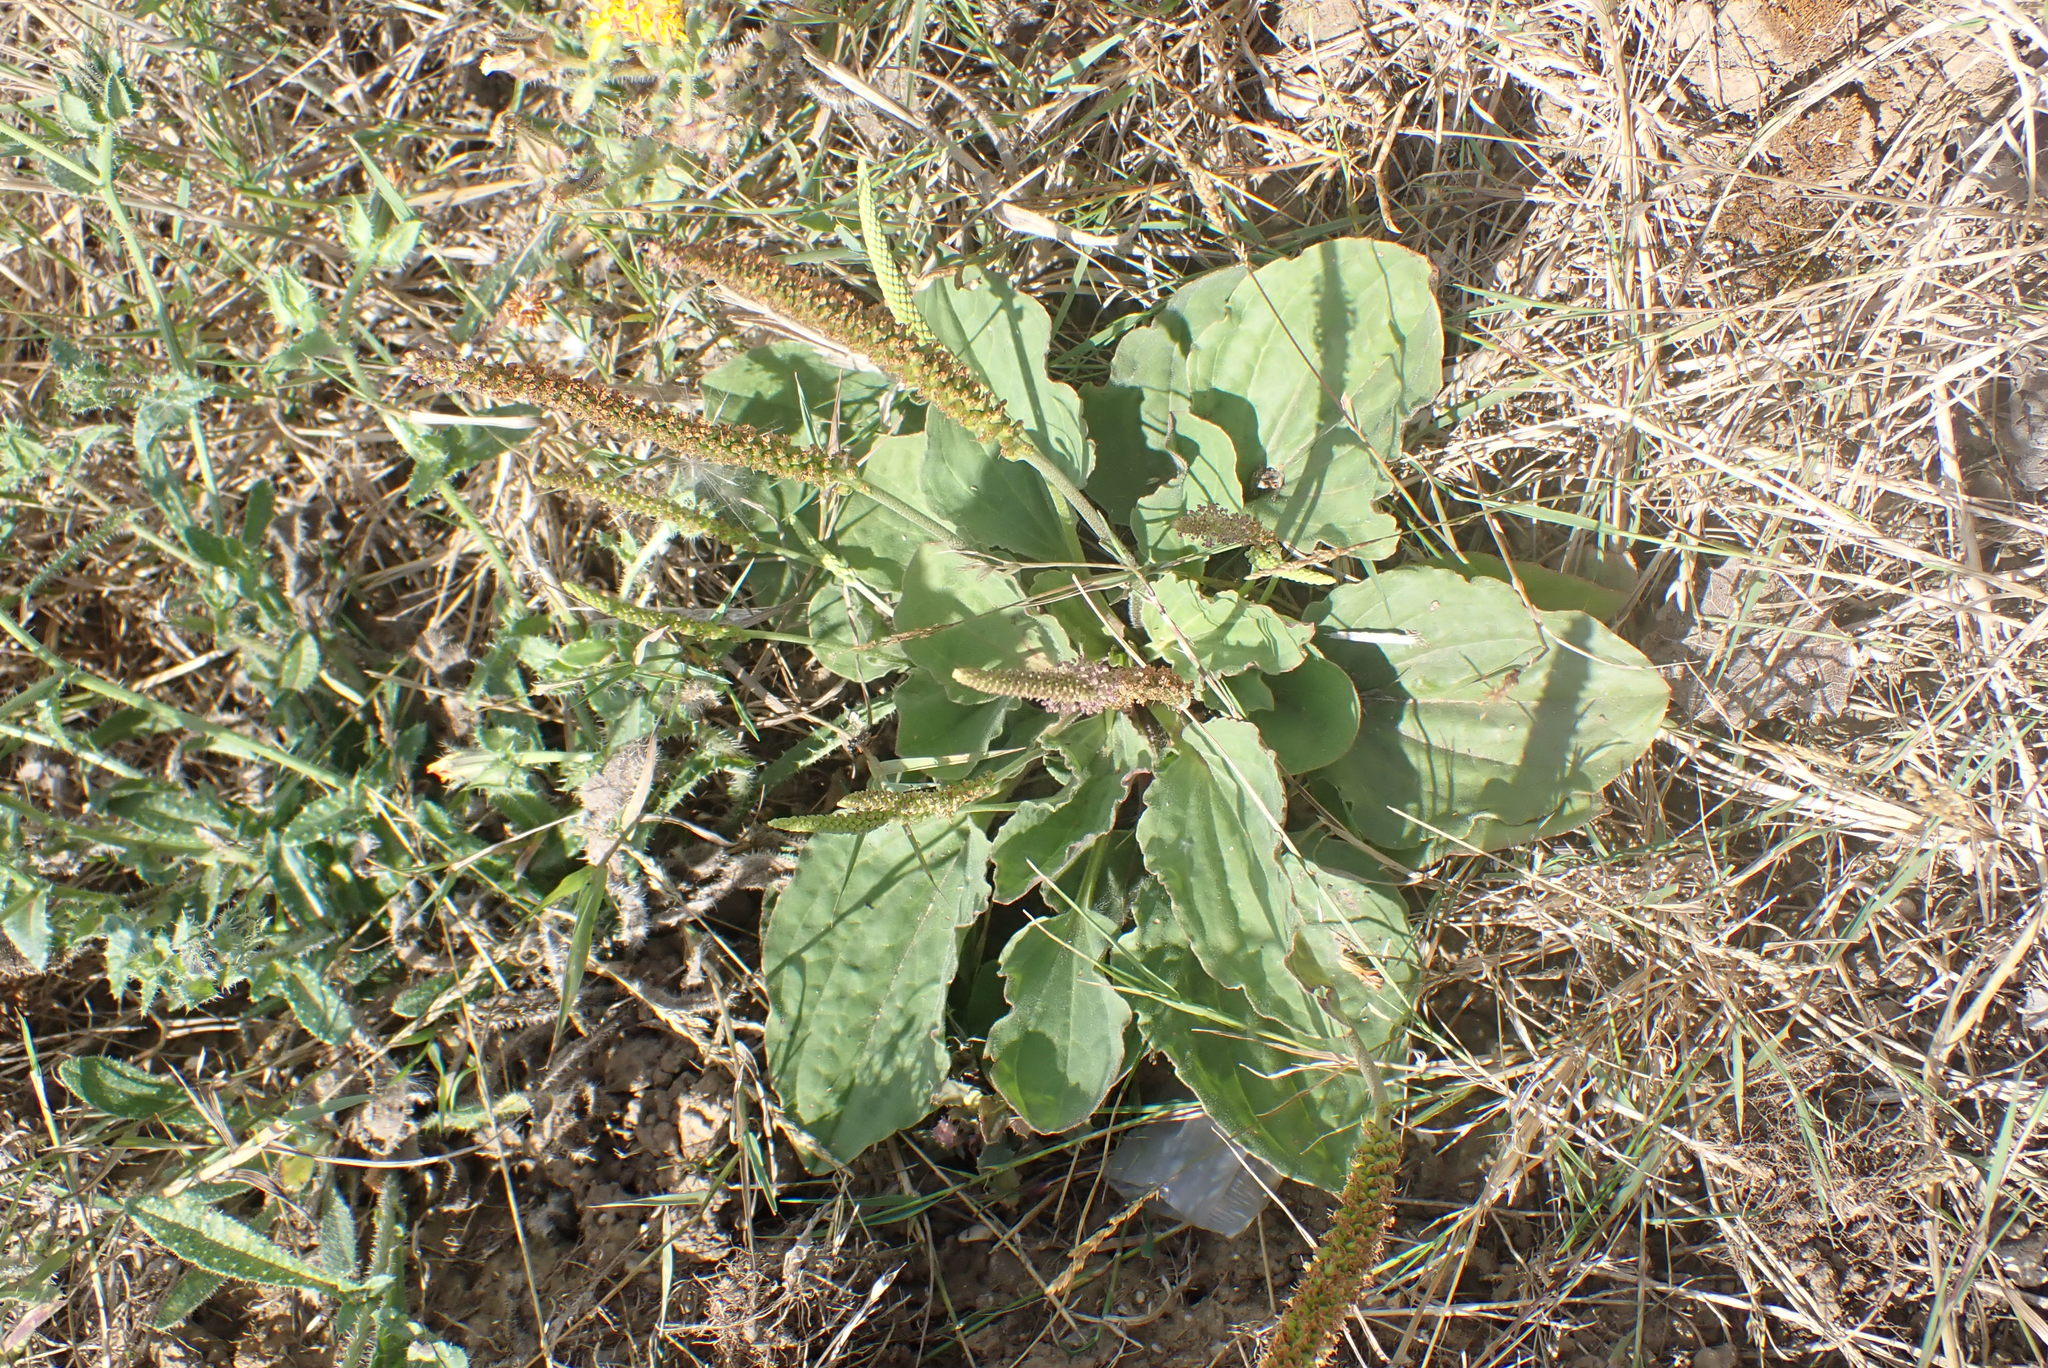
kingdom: Plantae
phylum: Tracheophyta
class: Magnoliopsida
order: Lamiales
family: Plantaginaceae
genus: Plantago
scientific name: Plantago major
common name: Common plantain
